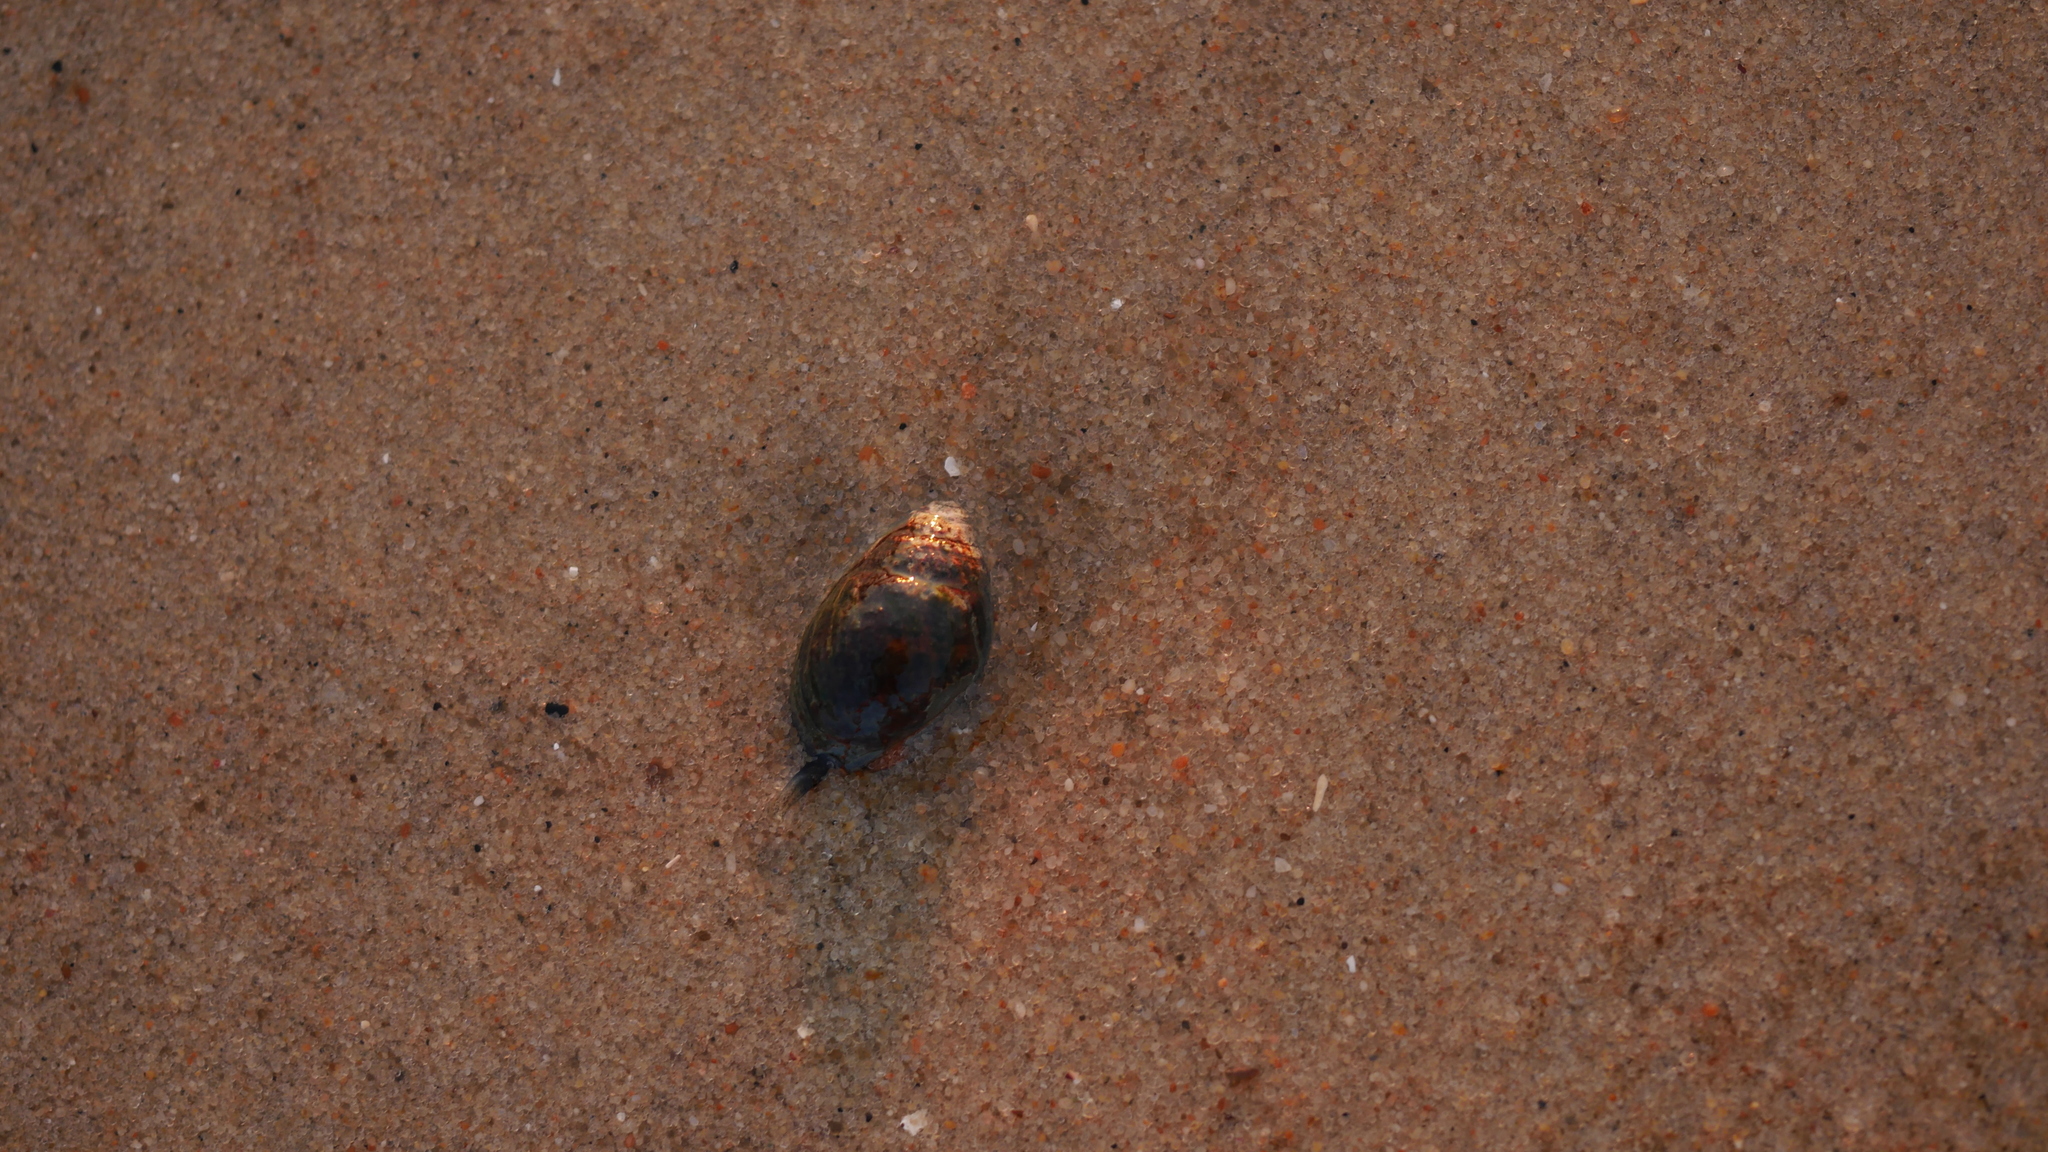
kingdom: Animalia
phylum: Mollusca
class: Gastropoda
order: Neogastropoda
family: Nassariidae
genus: Ilyanassa
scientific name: Ilyanassa obsoleta
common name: Eastern mudsnail
